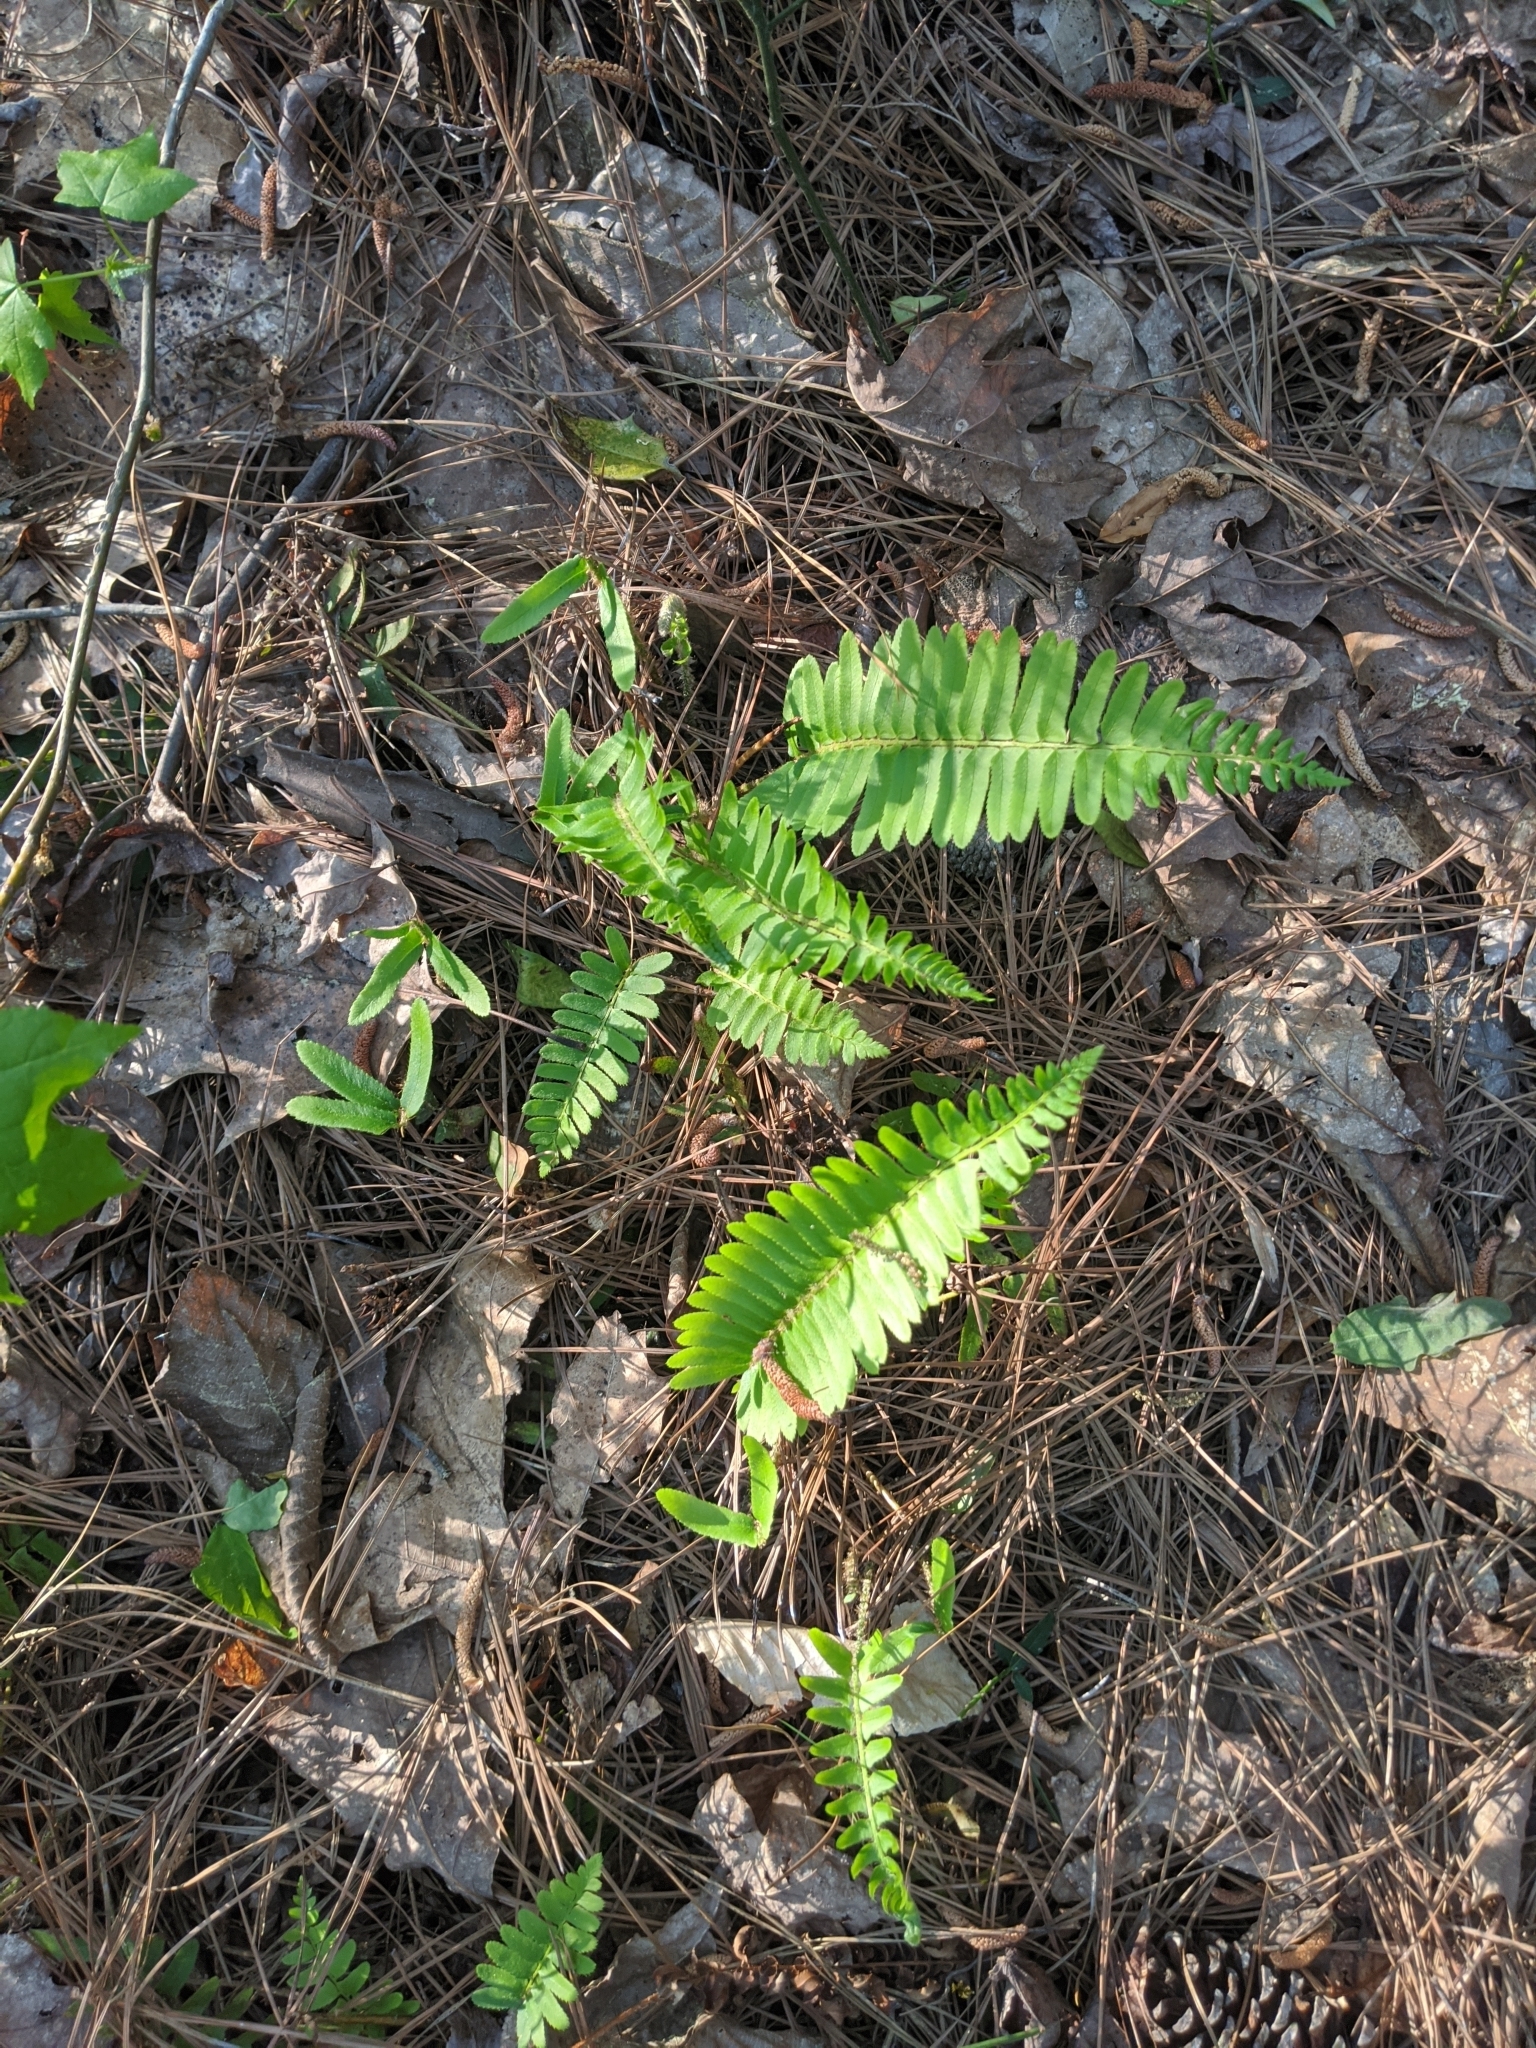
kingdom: Plantae
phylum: Tracheophyta
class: Polypodiopsida
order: Polypodiales
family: Dryopteridaceae
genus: Polystichum
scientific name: Polystichum acrostichoides
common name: Christmas fern
